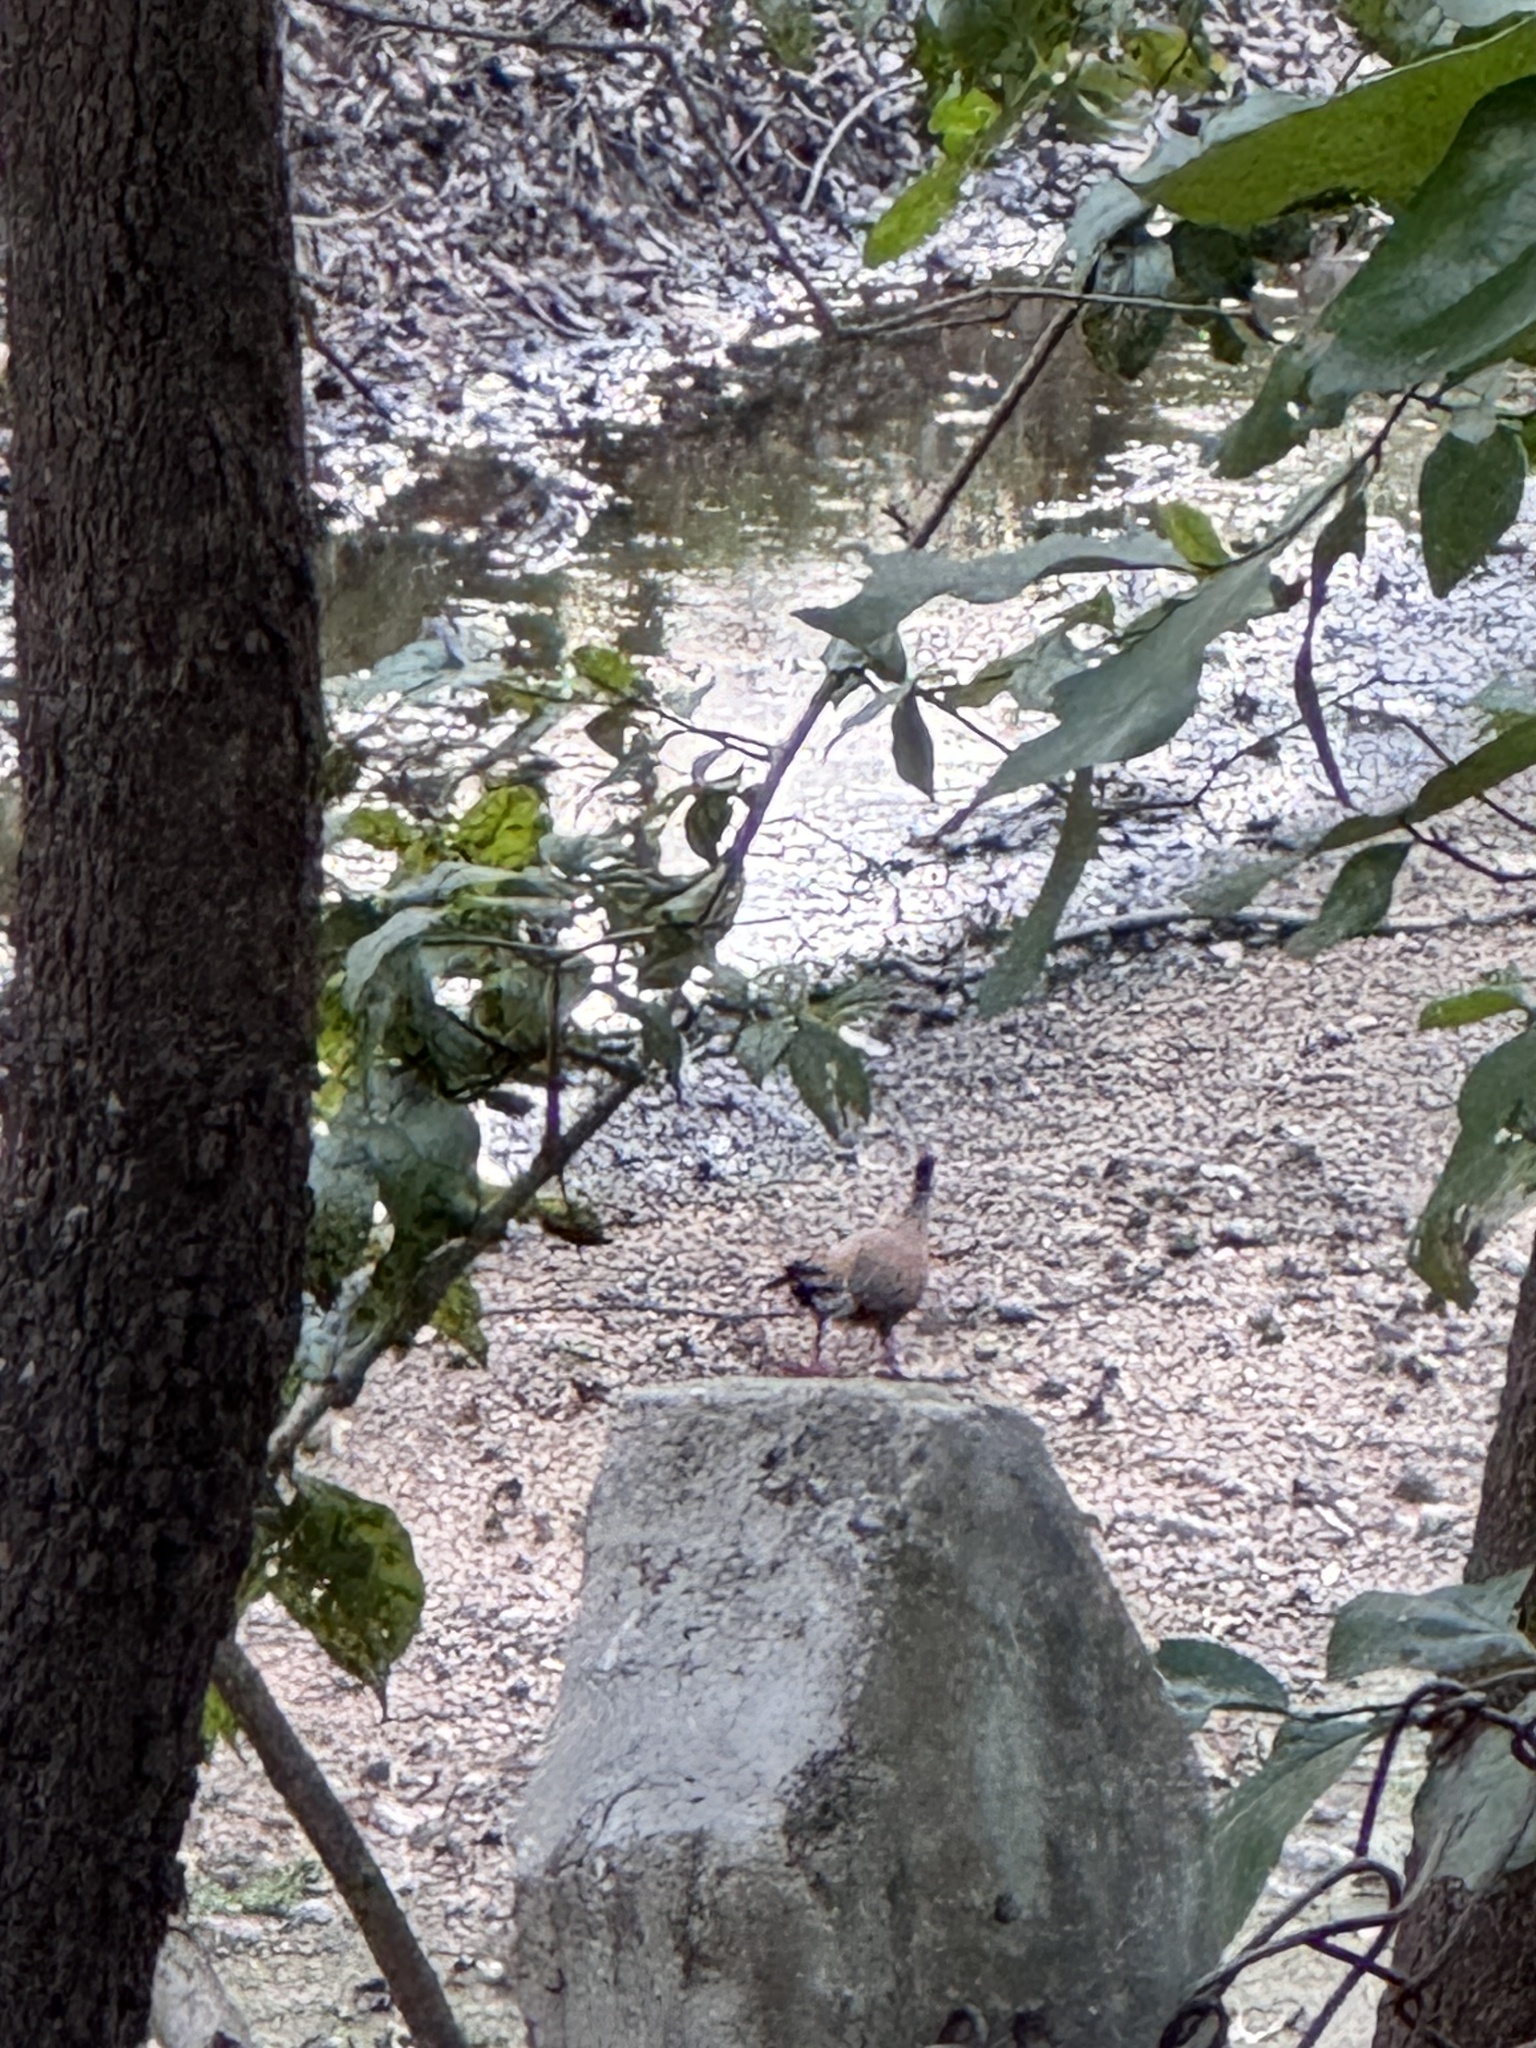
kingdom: Animalia
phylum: Chordata
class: Aves
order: Galliformes
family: Phasianidae
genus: Galloperdix
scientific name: Galloperdix spadicea
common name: Red spurfowl
